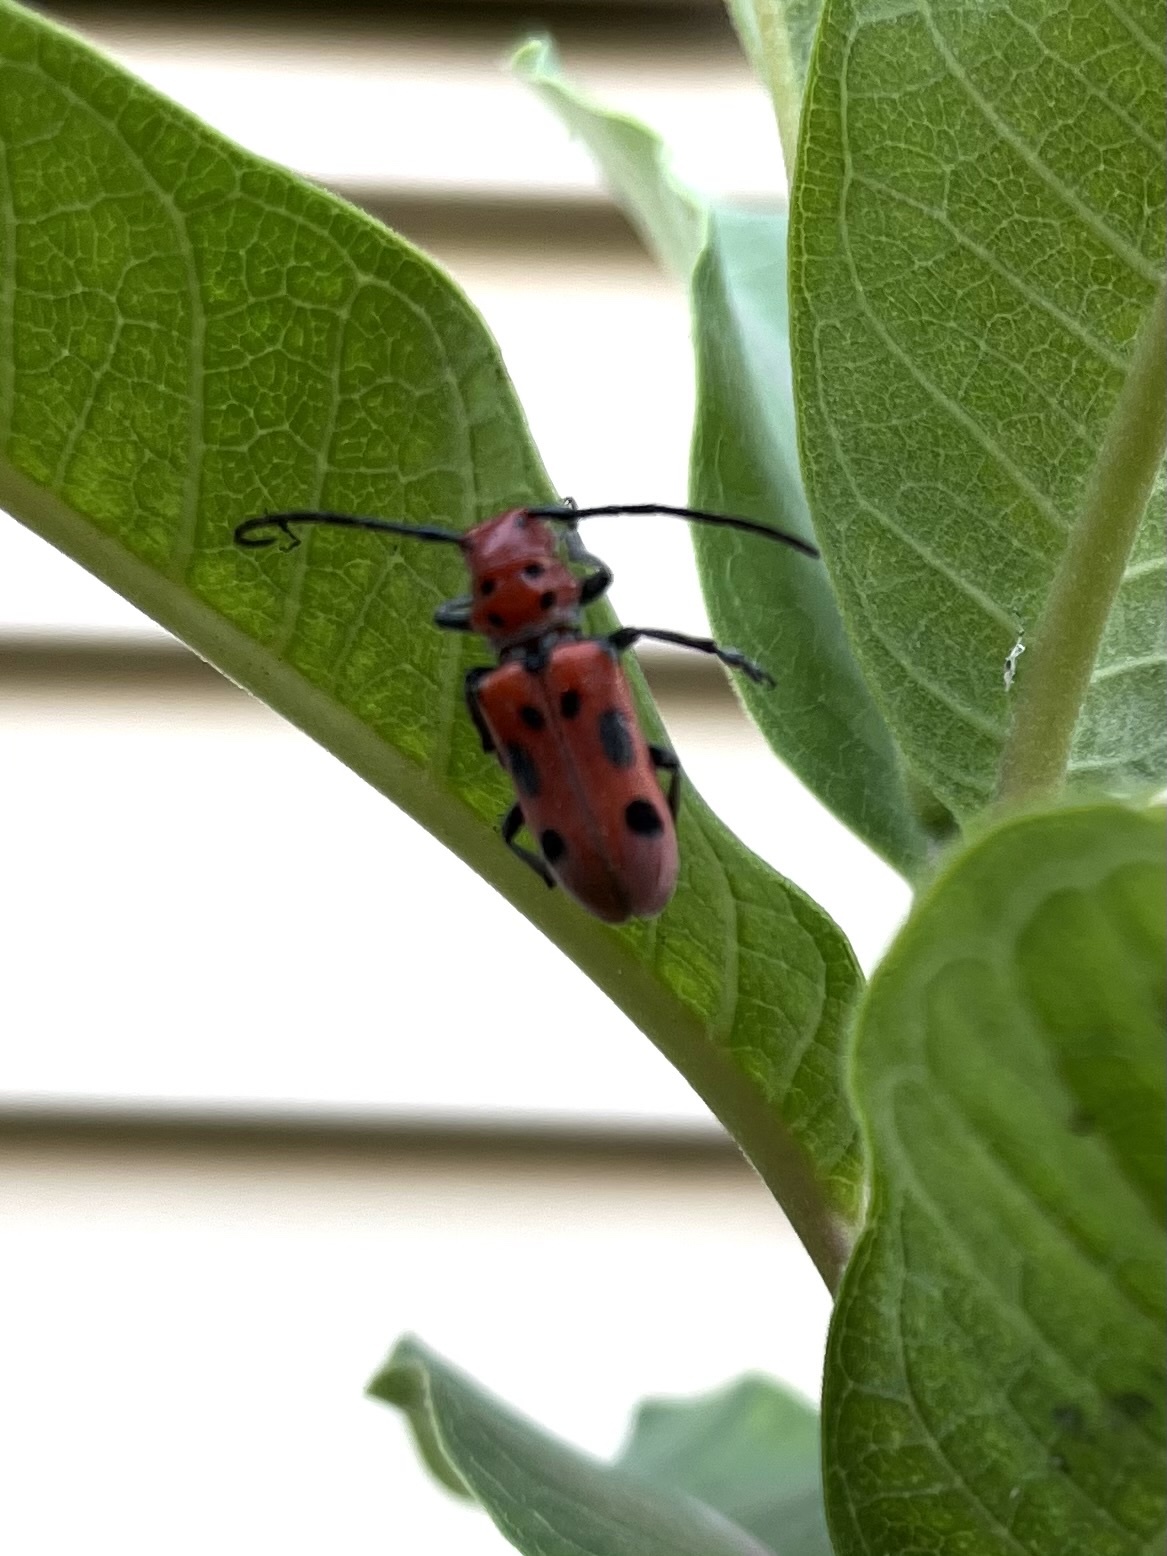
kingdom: Animalia
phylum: Arthropoda
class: Insecta
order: Coleoptera
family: Cerambycidae
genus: Tetraopes
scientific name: Tetraopes tetrophthalmus
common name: Red milkweed beetle
